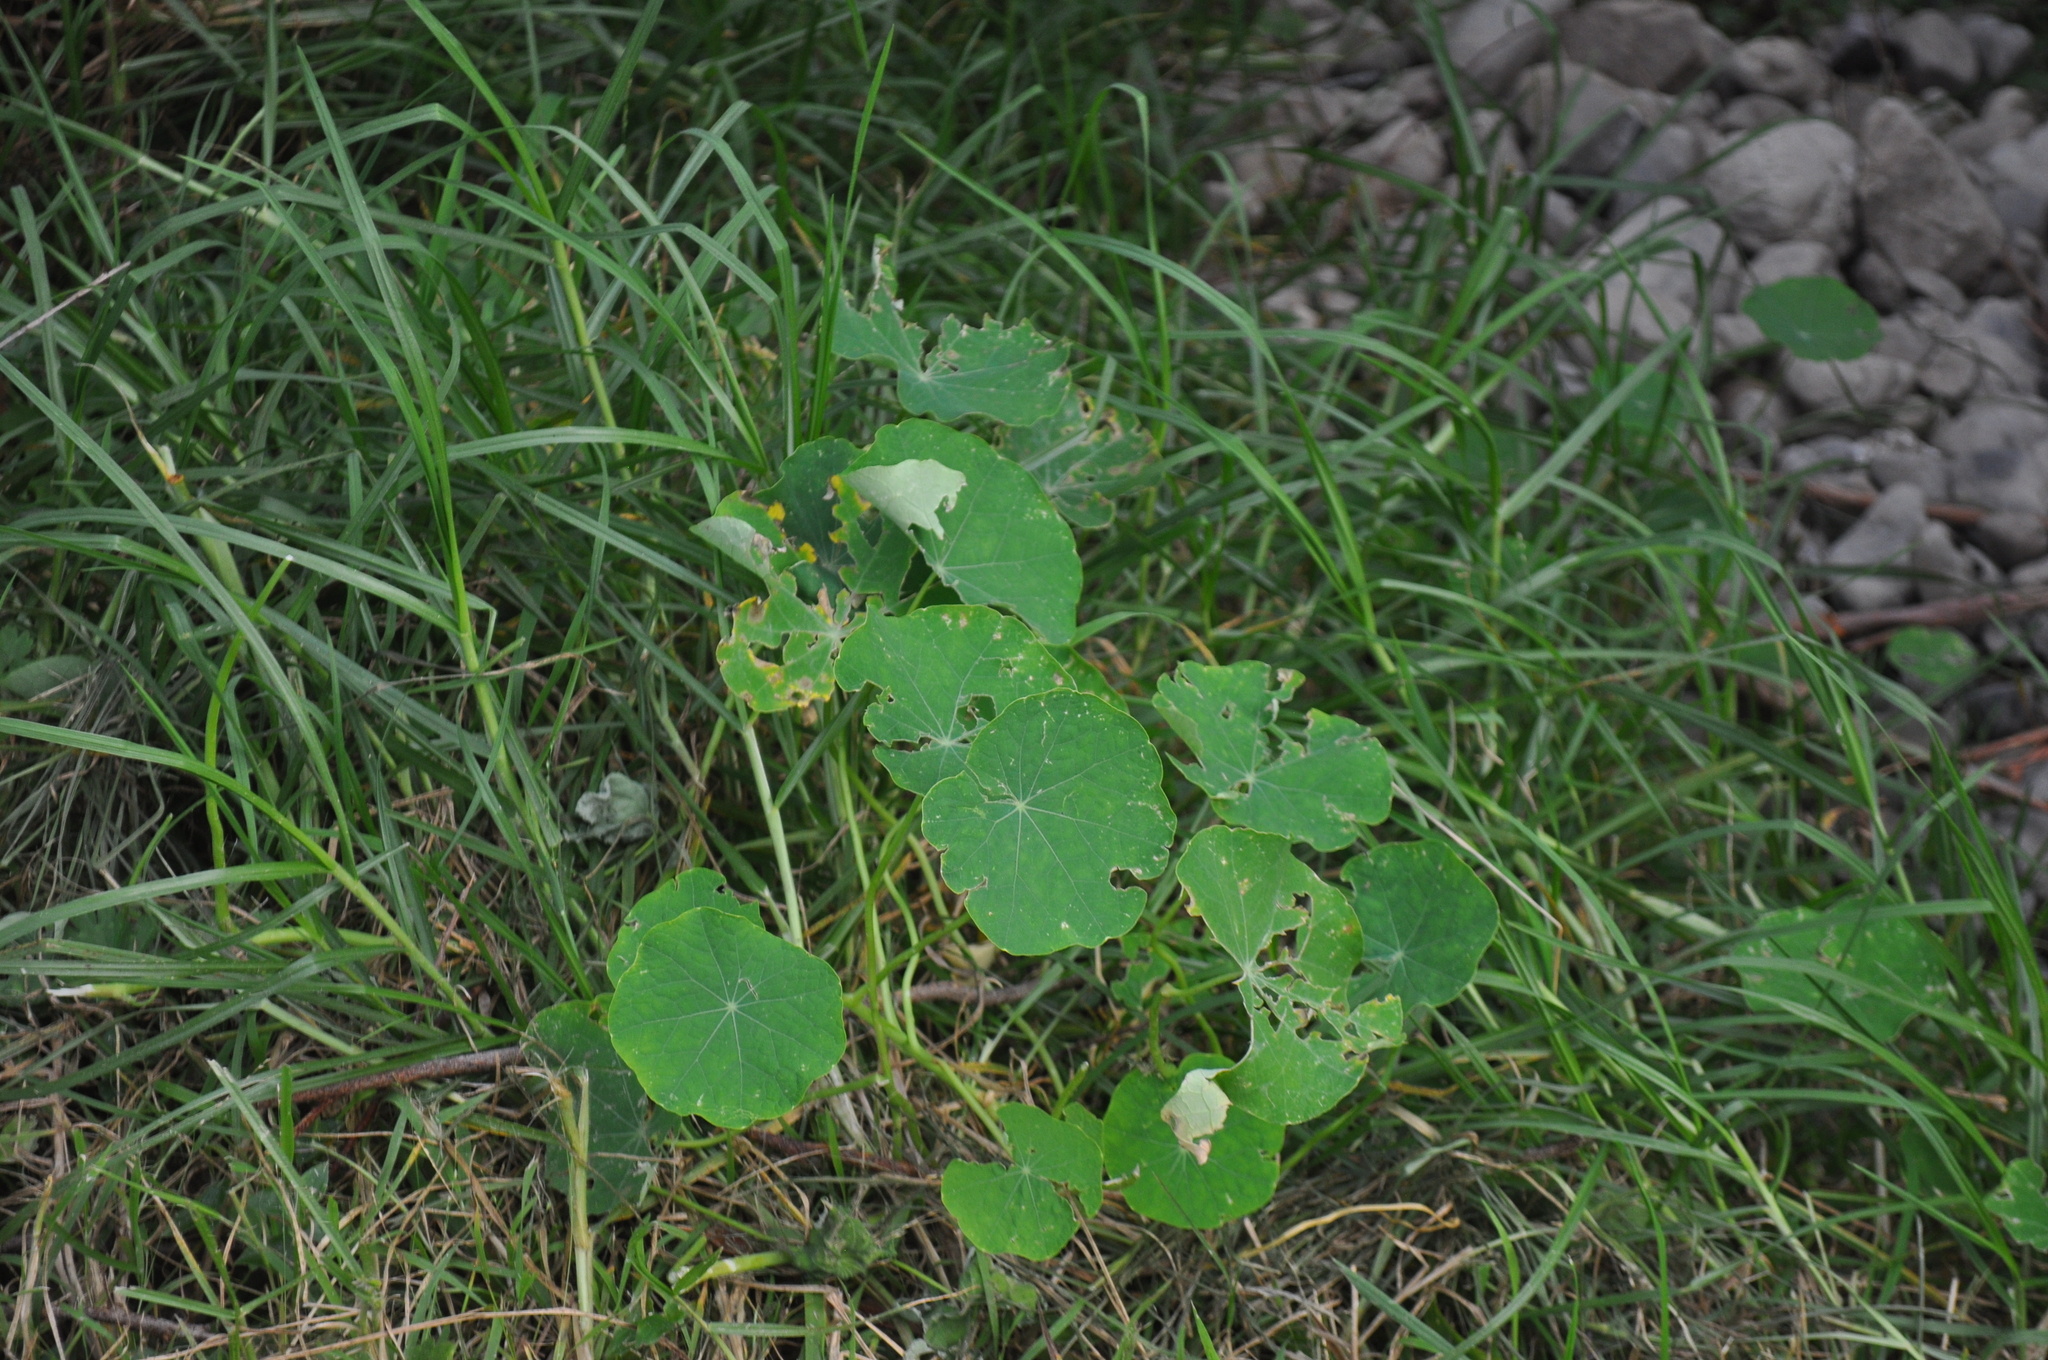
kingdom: Plantae
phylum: Tracheophyta
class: Magnoliopsida
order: Brassicales
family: Tropaeolaceae
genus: Tropaeolum
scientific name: Tropaeolum majus
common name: Nasturtium
